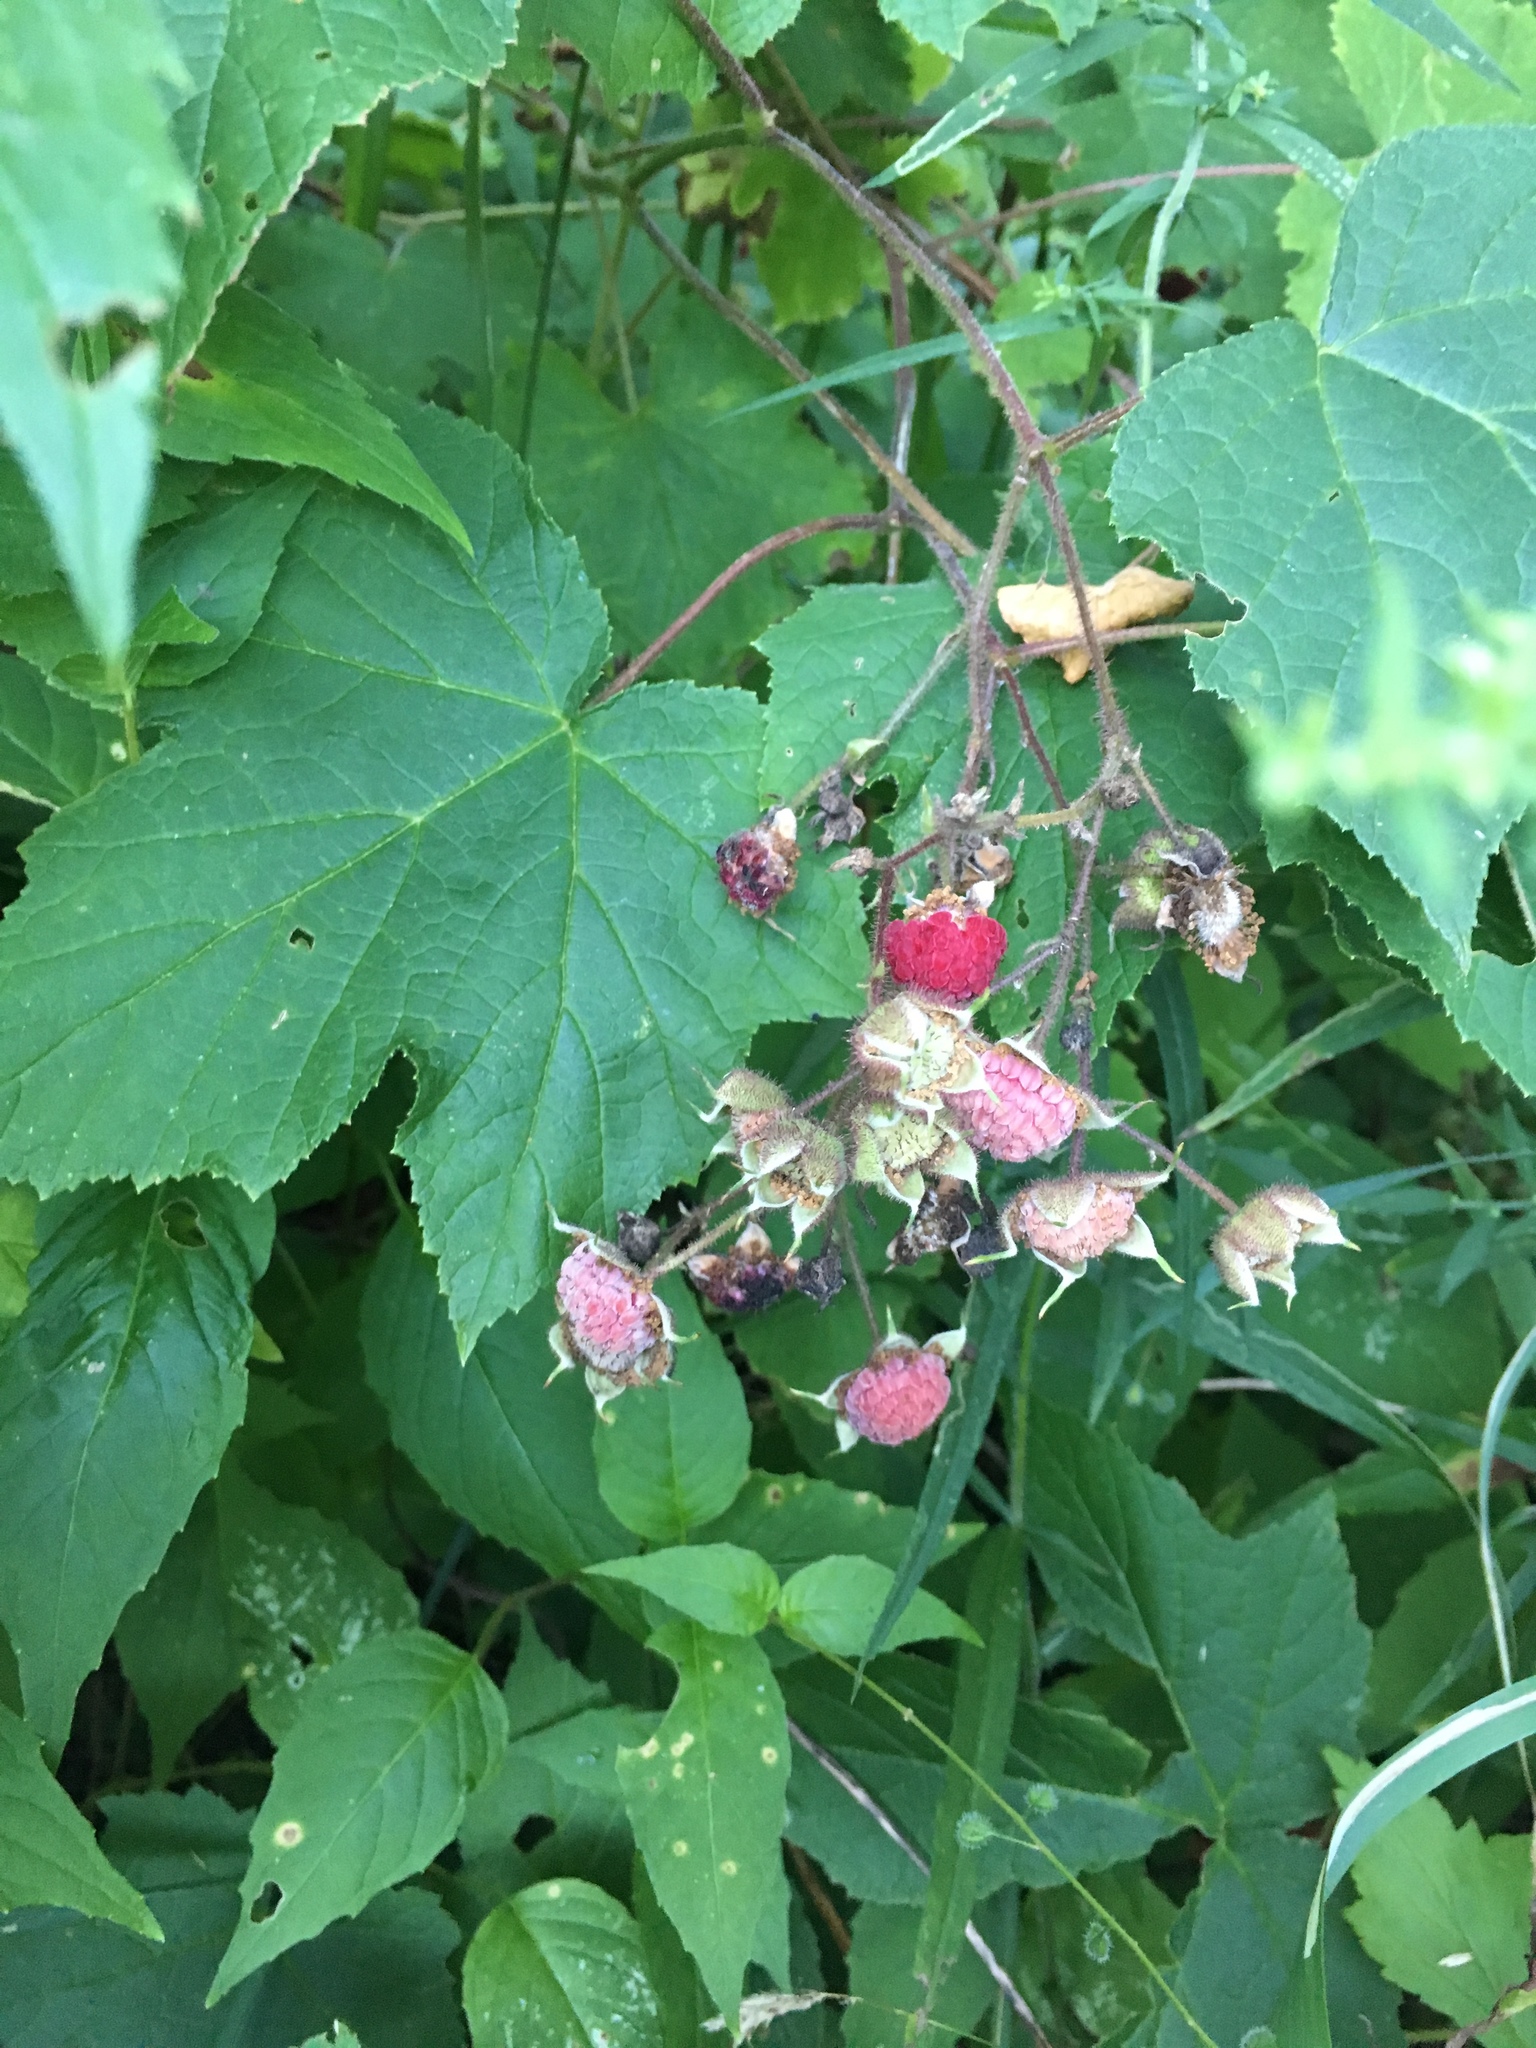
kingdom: Plantae
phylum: Tracheophyta
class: Magnoliopsida
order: Rosales
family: Rosaceae
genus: Rubus
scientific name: Rubus odoratus
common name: Purple-flowered raspberry
